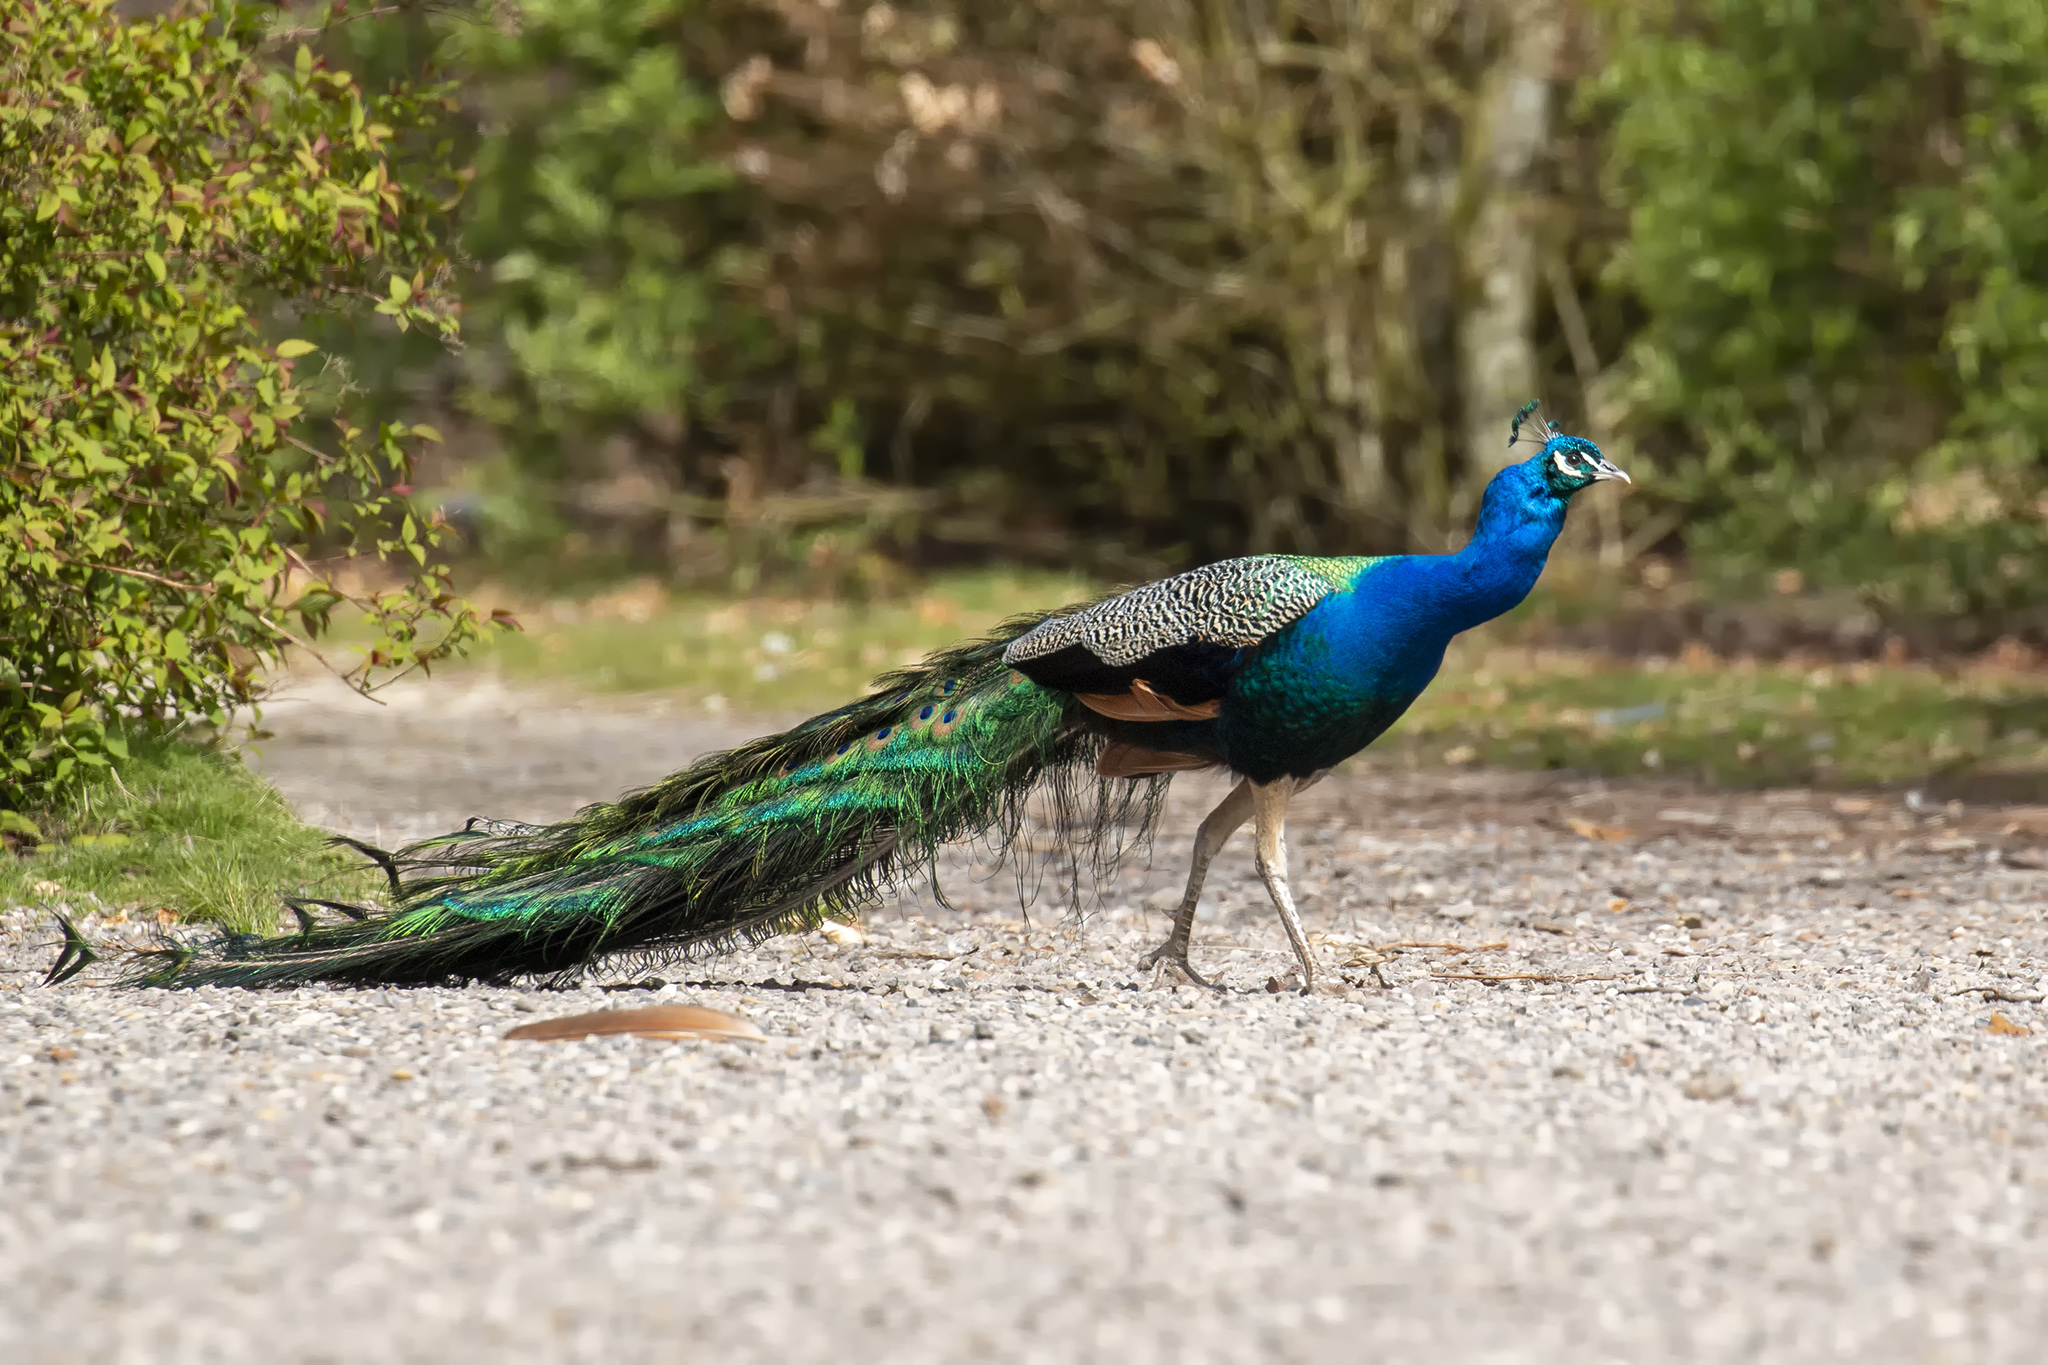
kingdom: Animalia
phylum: Chordata
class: Aves
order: Galliformes
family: Phasianidae
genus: Pavo
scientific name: Pavo cristatus
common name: Indian peafowl
